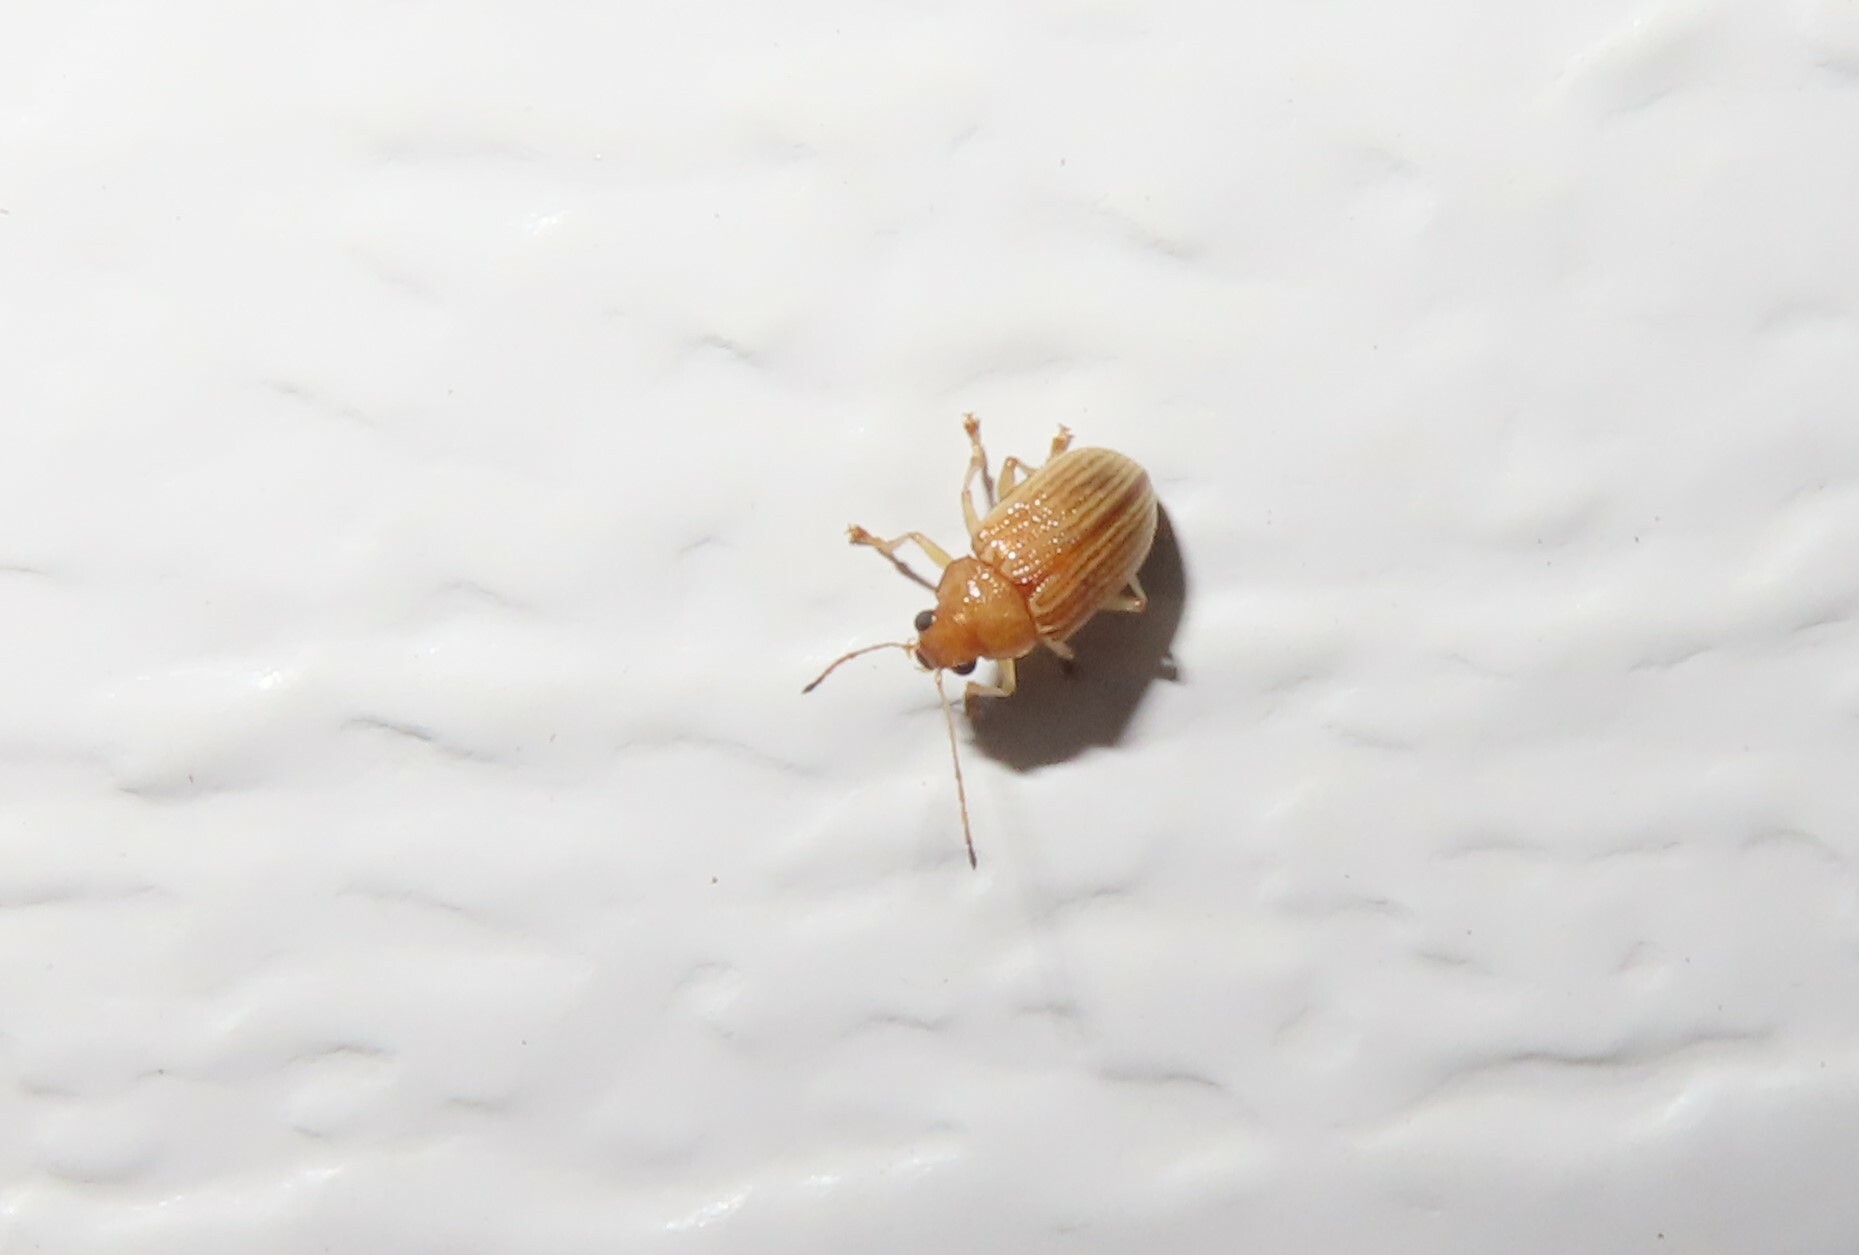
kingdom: Animalia
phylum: Arthropoda
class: Insecta
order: Coleoptera
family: Chrysomelidae
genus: Colaspis
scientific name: Colaspis brunnea
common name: Grape colaspis
